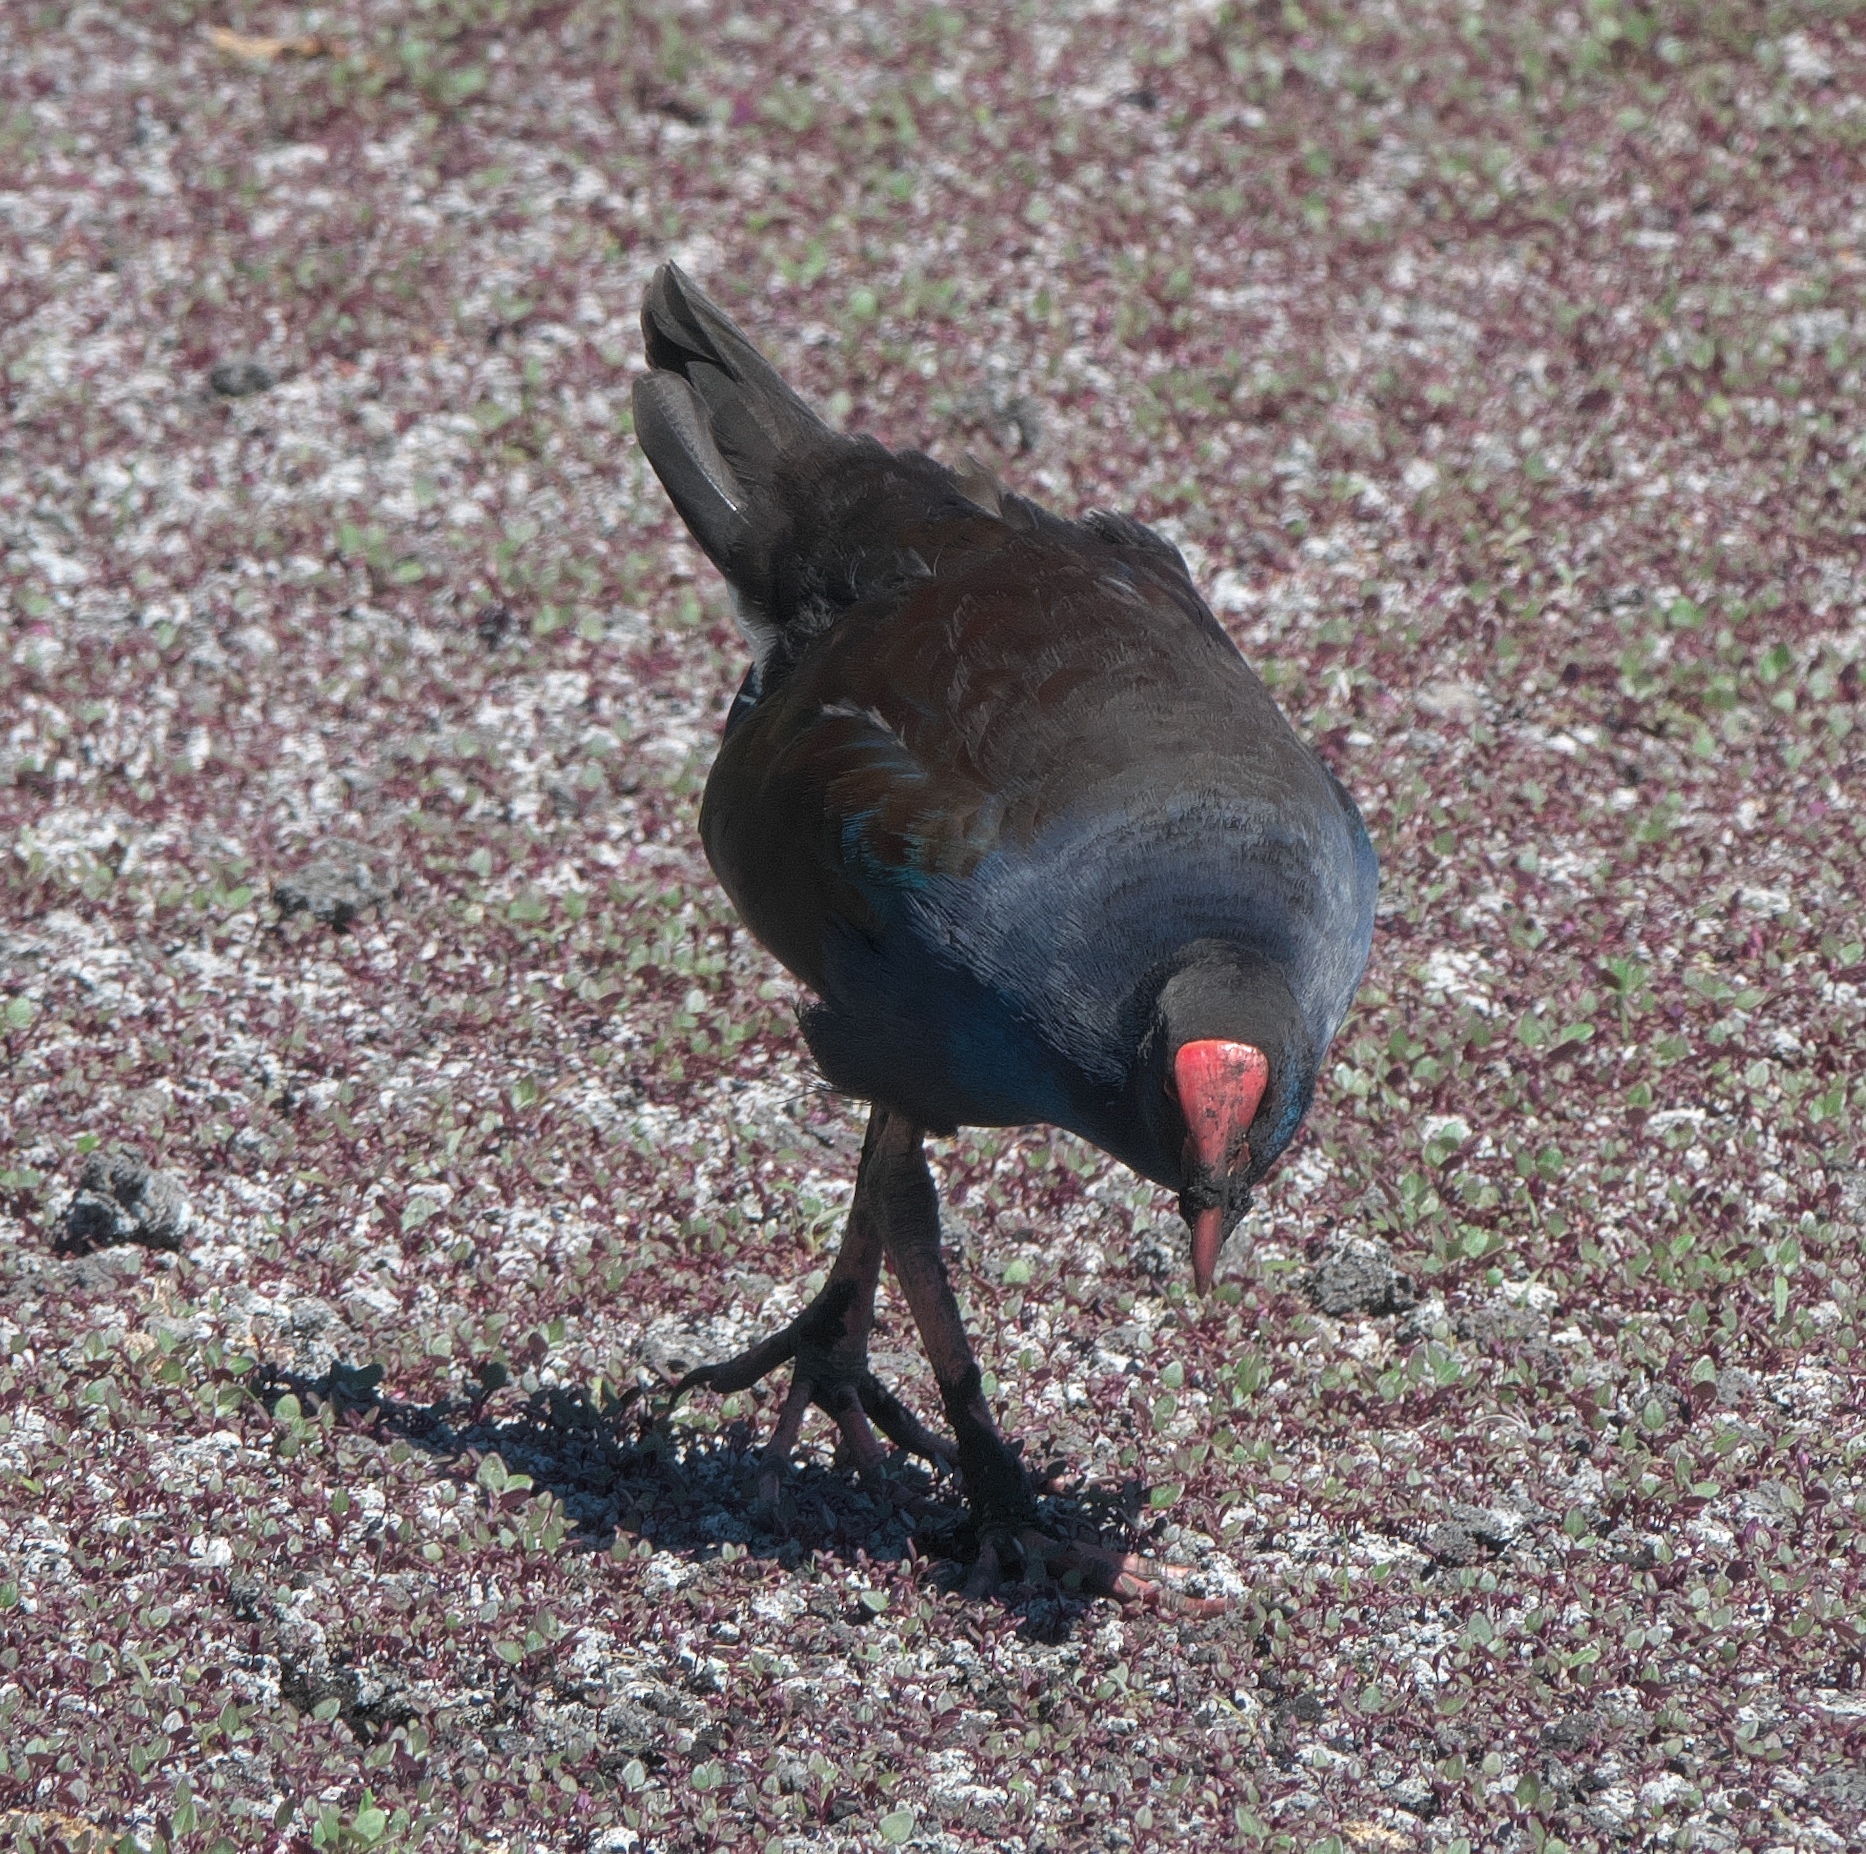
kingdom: Animalia
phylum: Chordata
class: Aves
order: Gruiformes
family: Rallidae
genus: Porphyrio
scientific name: Porphyrio melanotus
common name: Australasian swamphen
